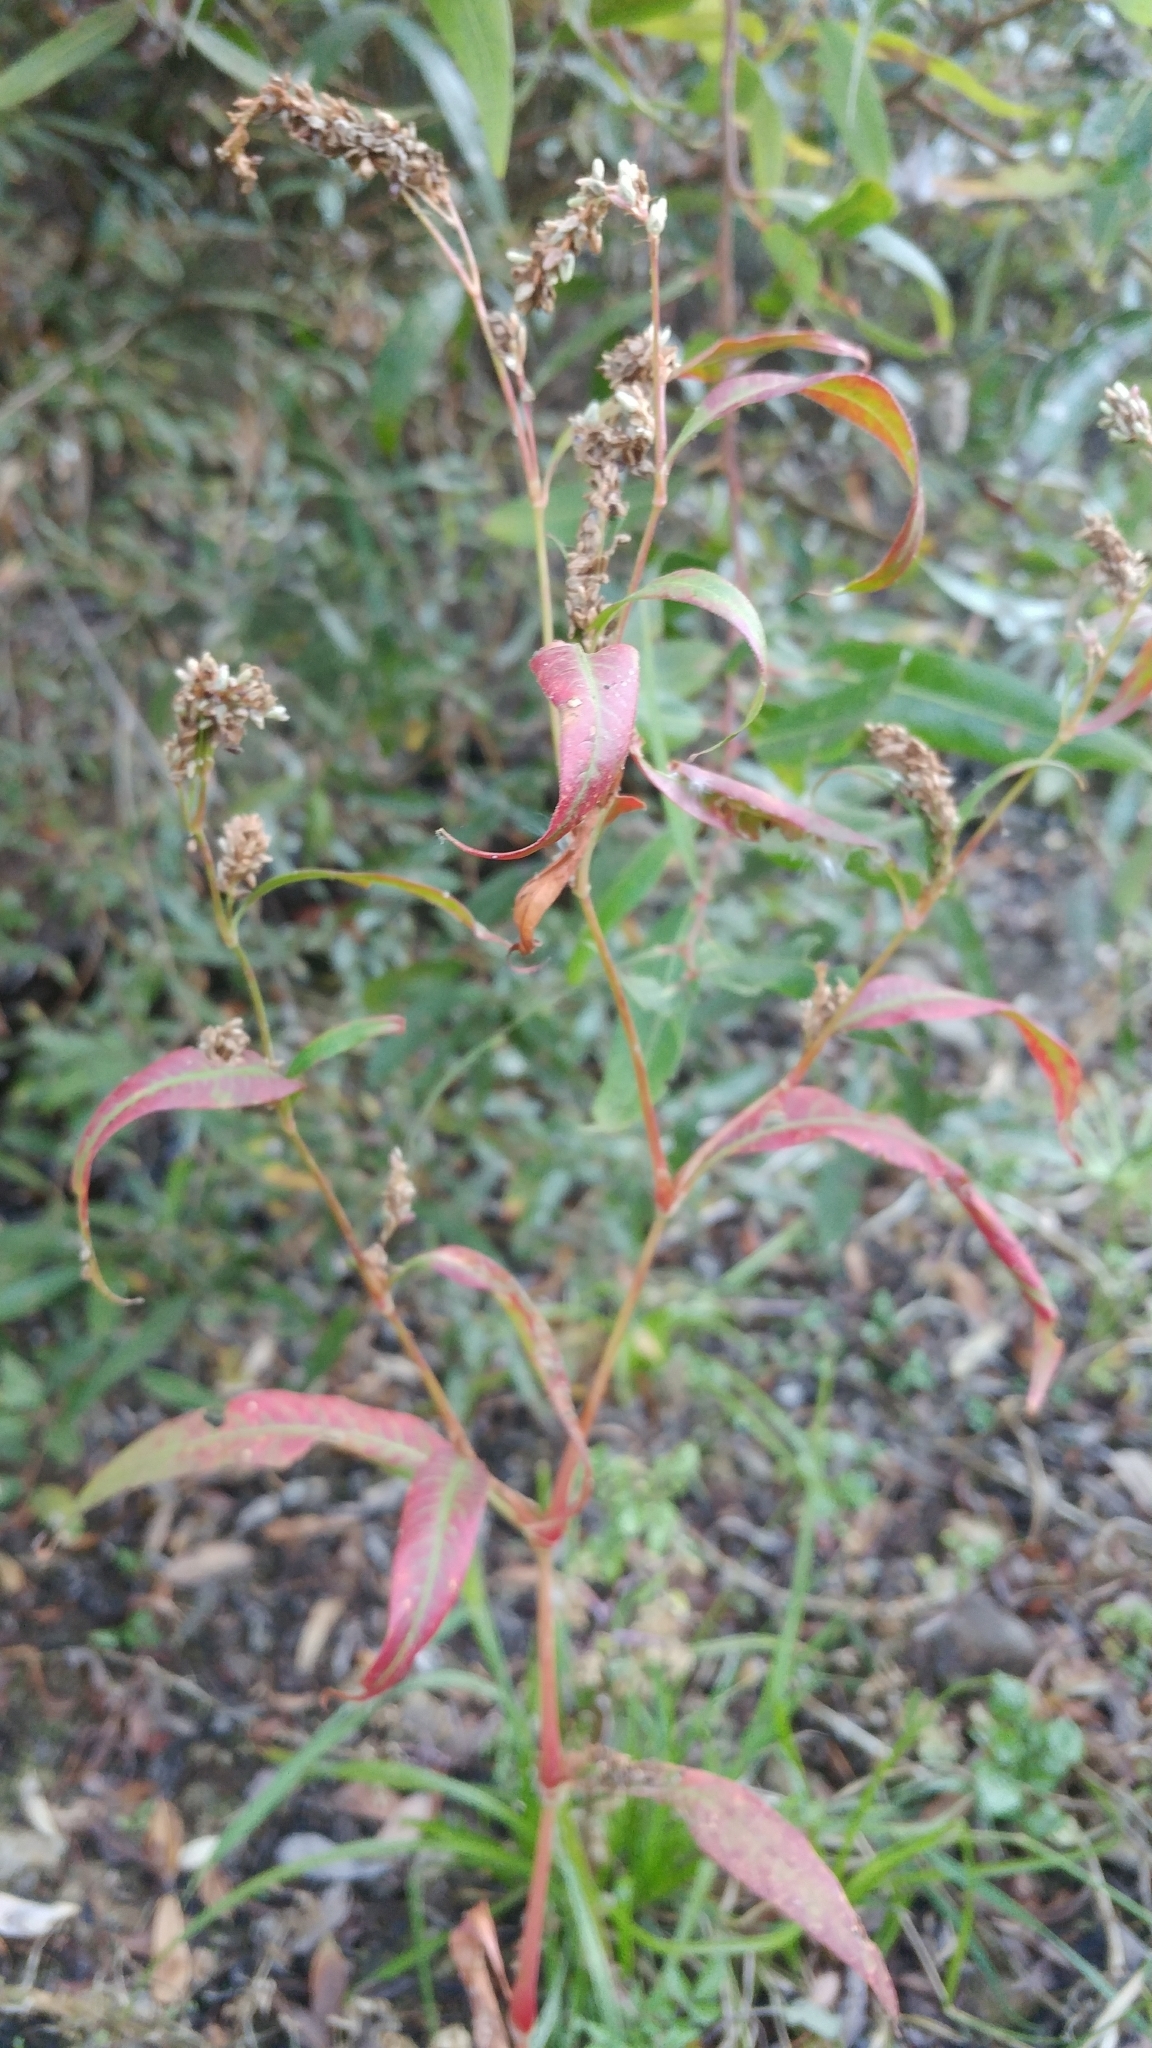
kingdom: Plantae
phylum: Tracheophyta
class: Magnoliopsida
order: Caryophyllales
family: Polygonaceae
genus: Persicaria
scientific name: Persicaria lapathifolia
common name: Curlytop knotweed
